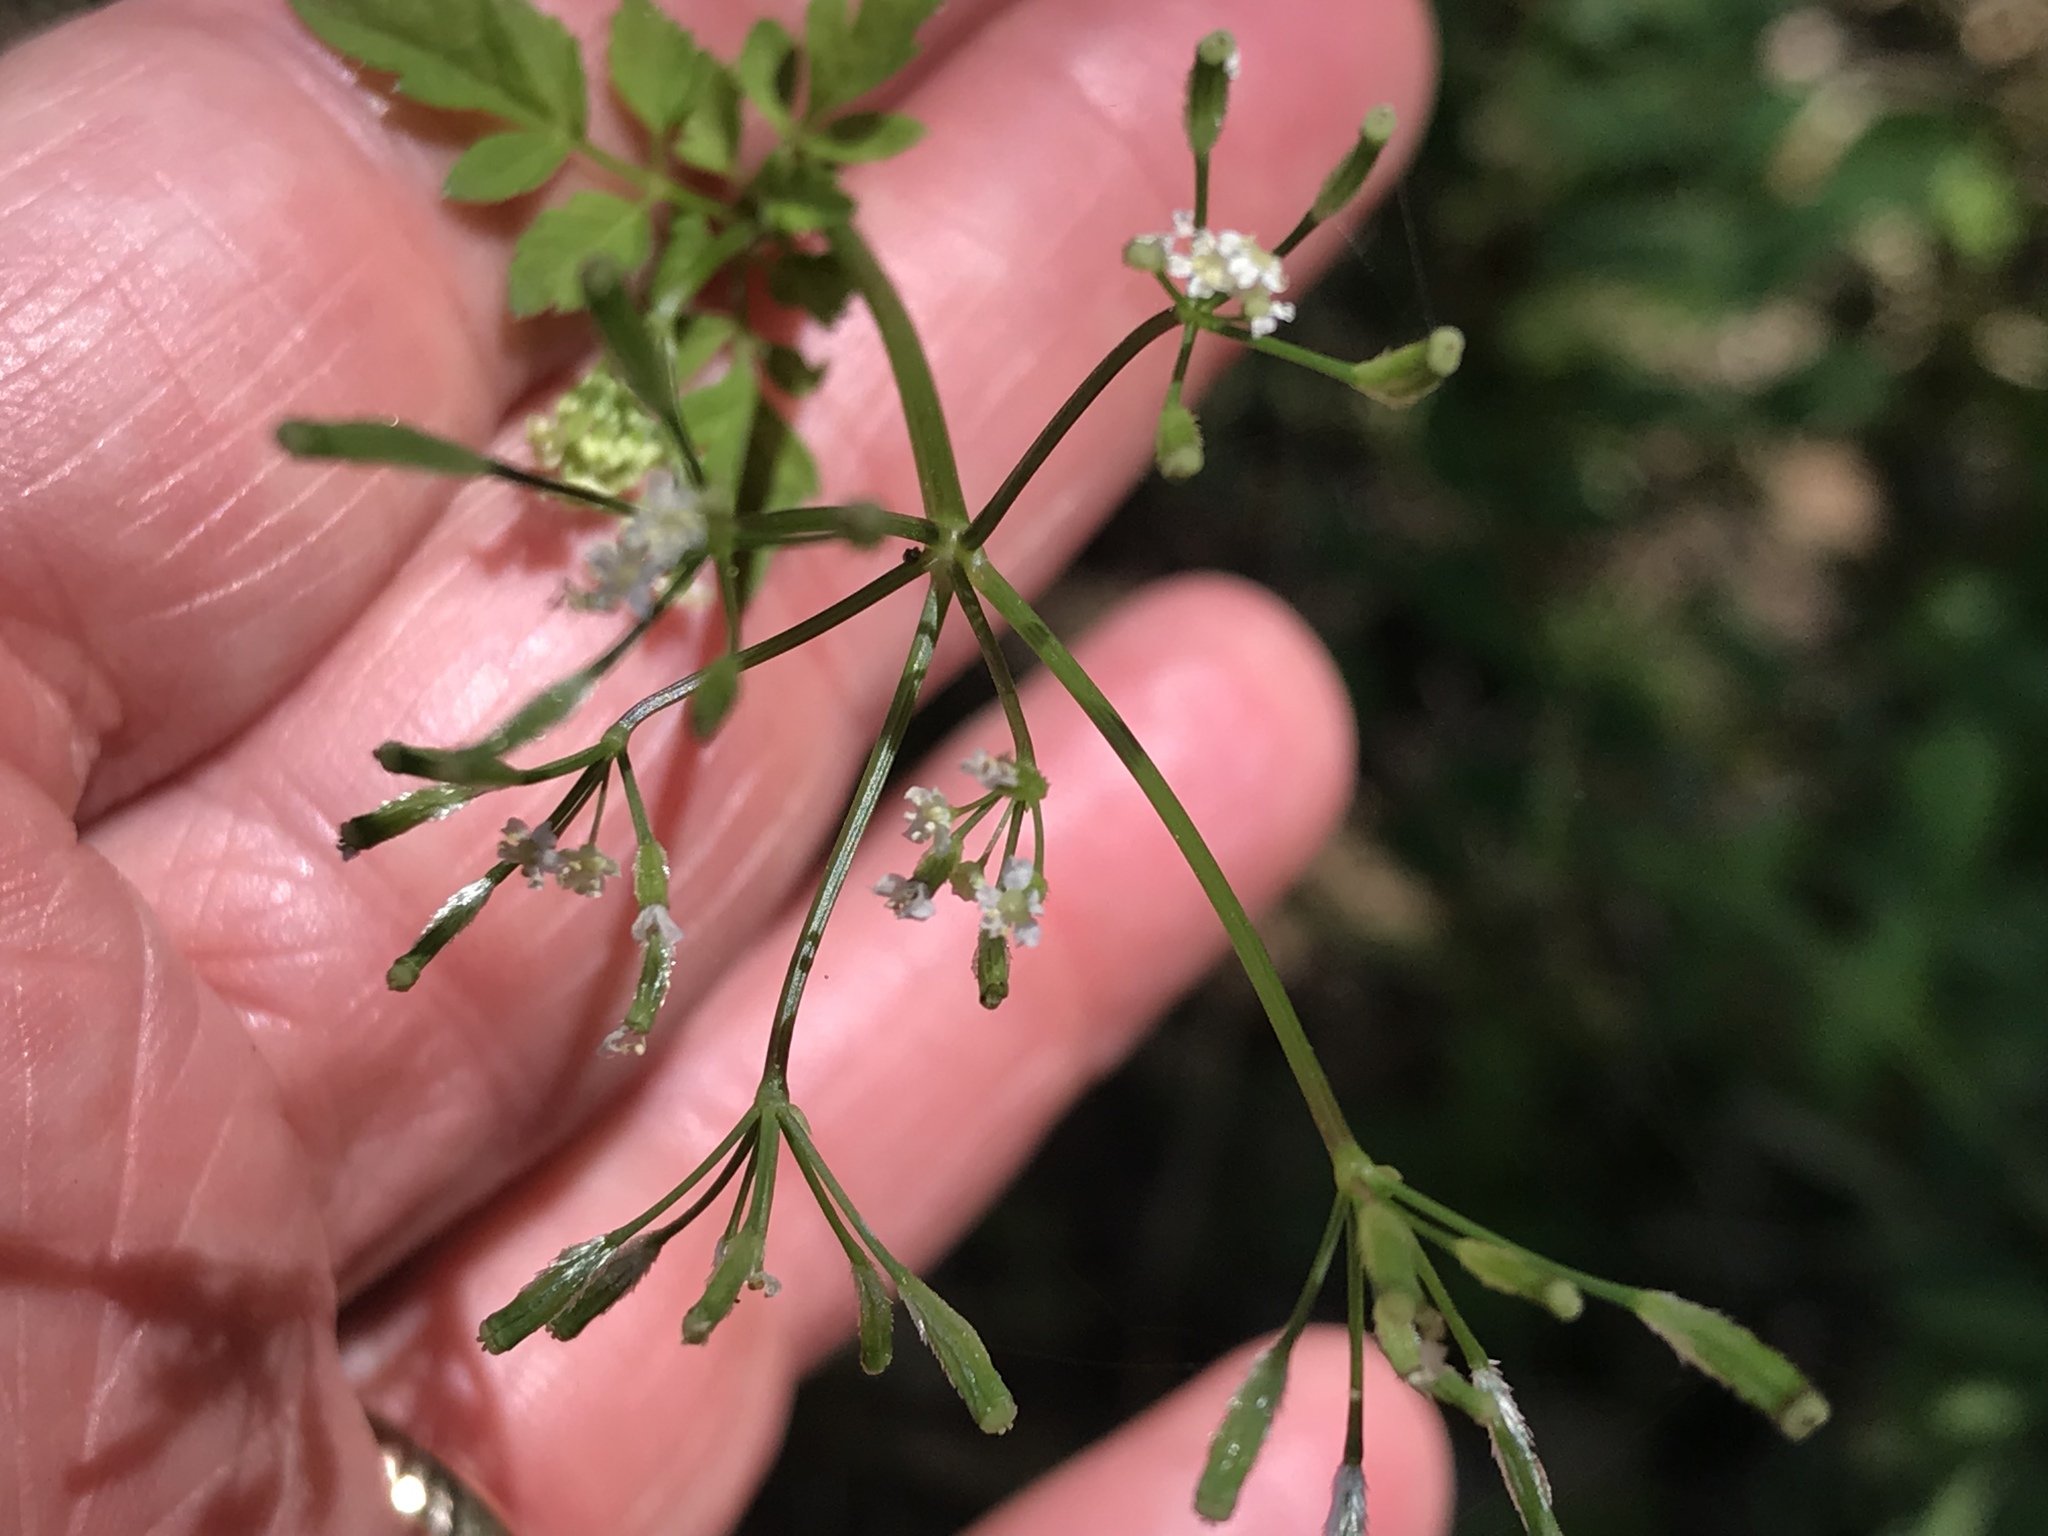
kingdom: Plantae
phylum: Tracheophyta
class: Magnoliopsida
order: Apiales
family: Apiaceae
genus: Osmorhiza
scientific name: Osmorhiza berteroi
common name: Mountain sweet cicely
